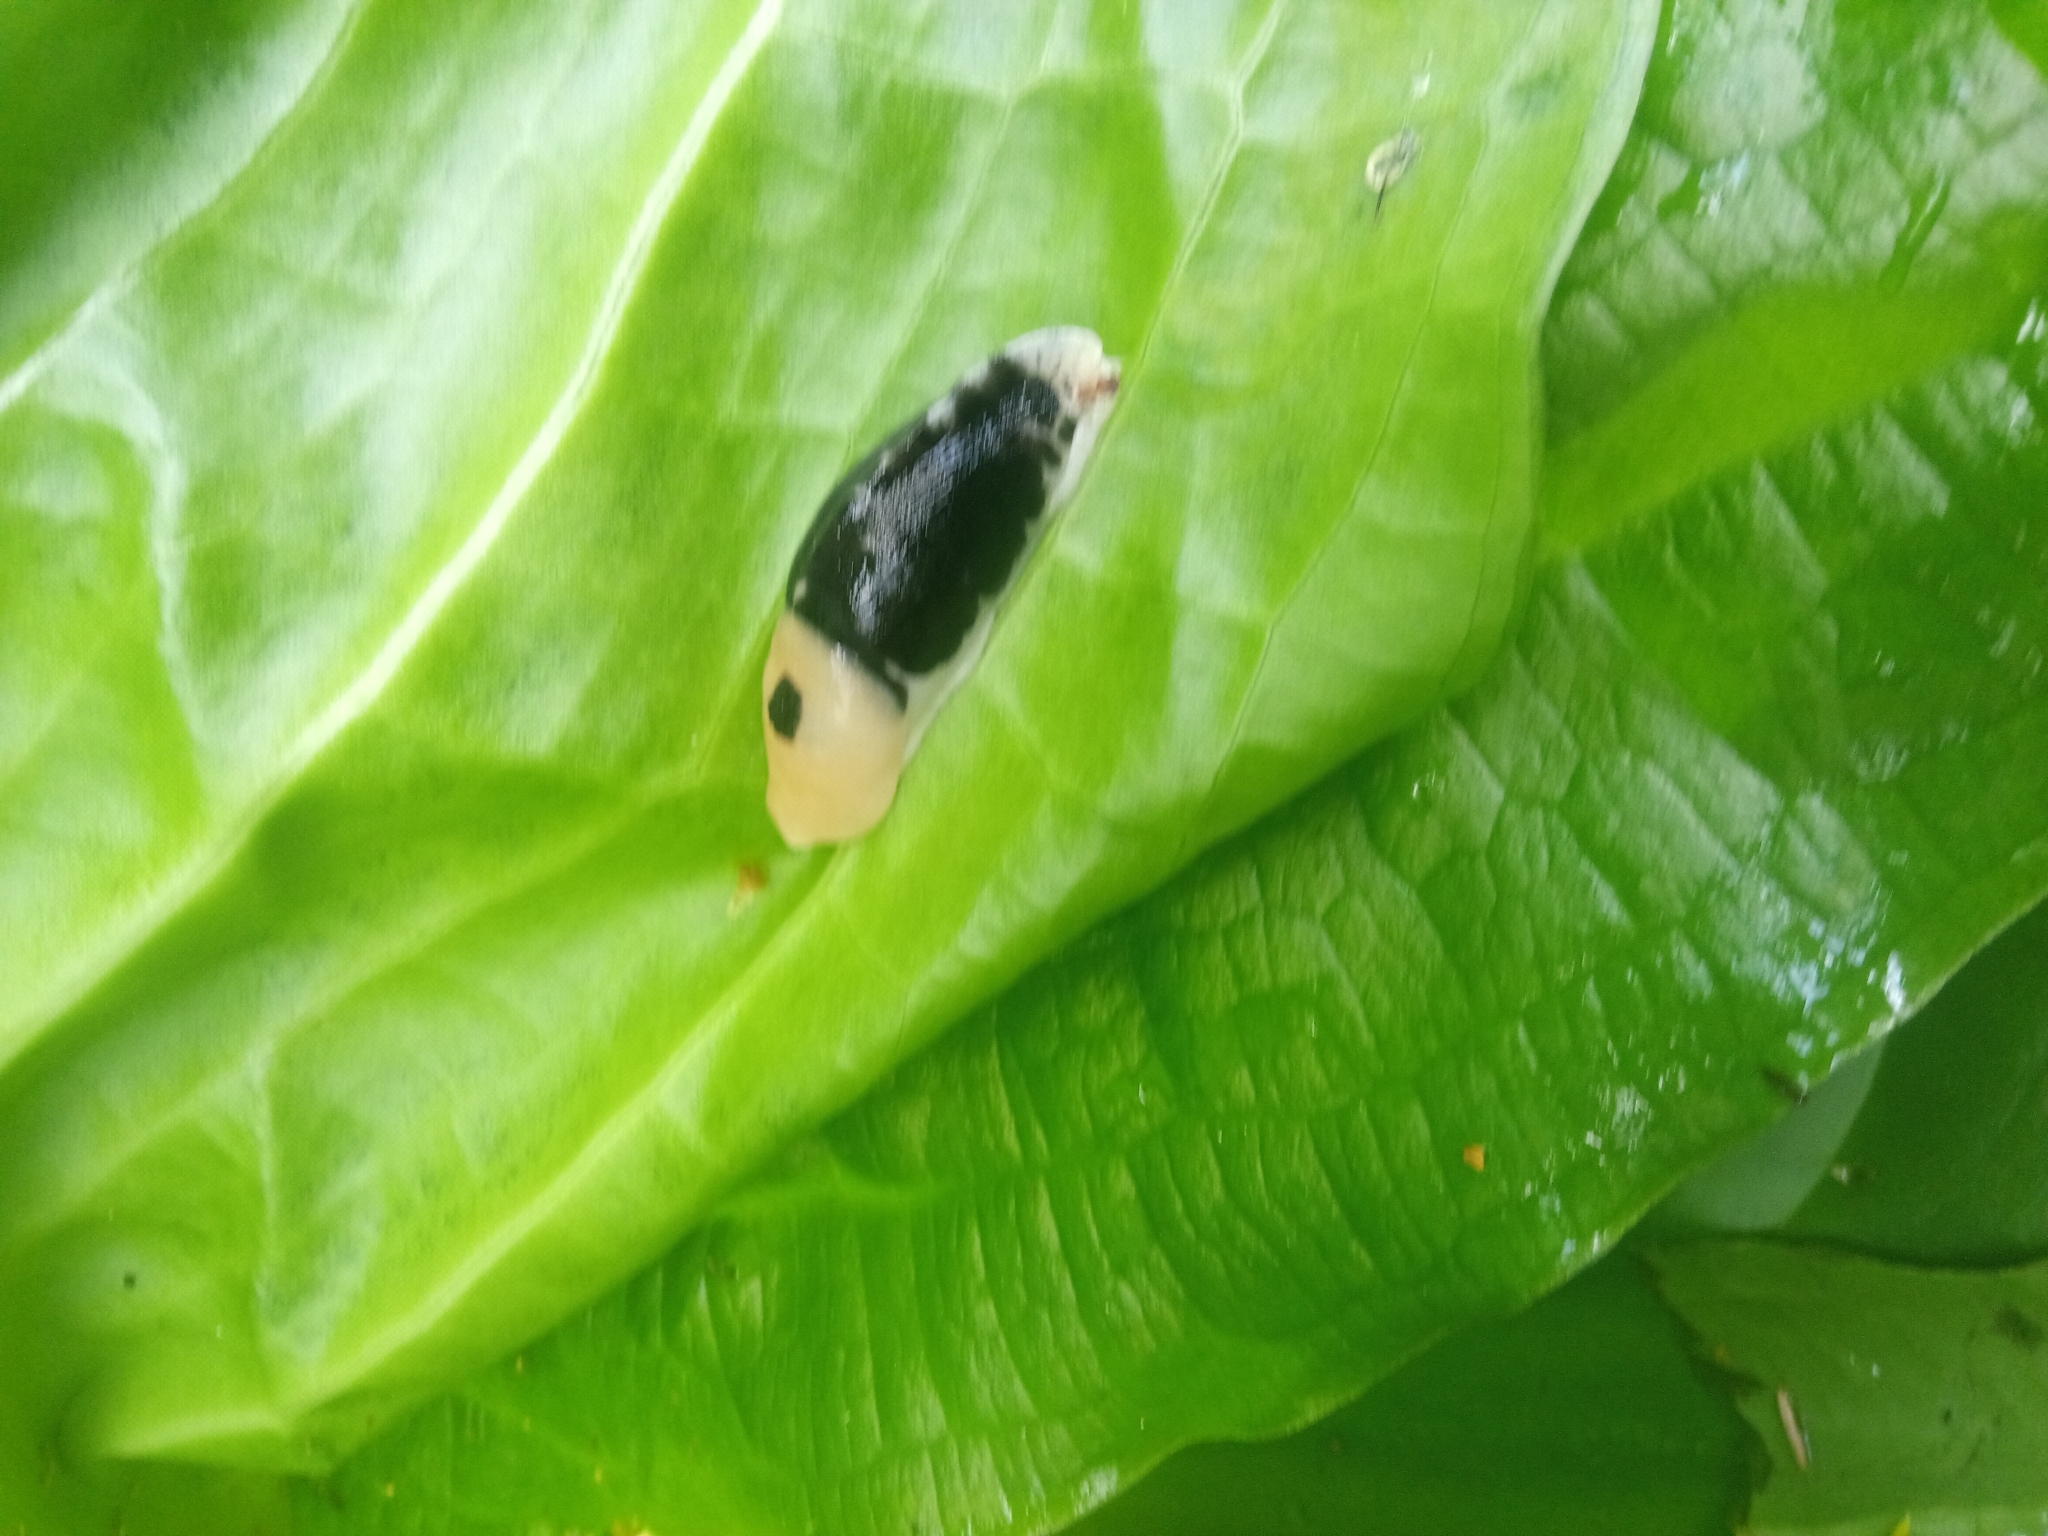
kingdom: Animalia
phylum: Mollusca
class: Gastropoda
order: Stylommatophora
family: Ariolimacidae
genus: Ariolimax
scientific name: Ariolimax columbianus
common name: Pacific banana slug
